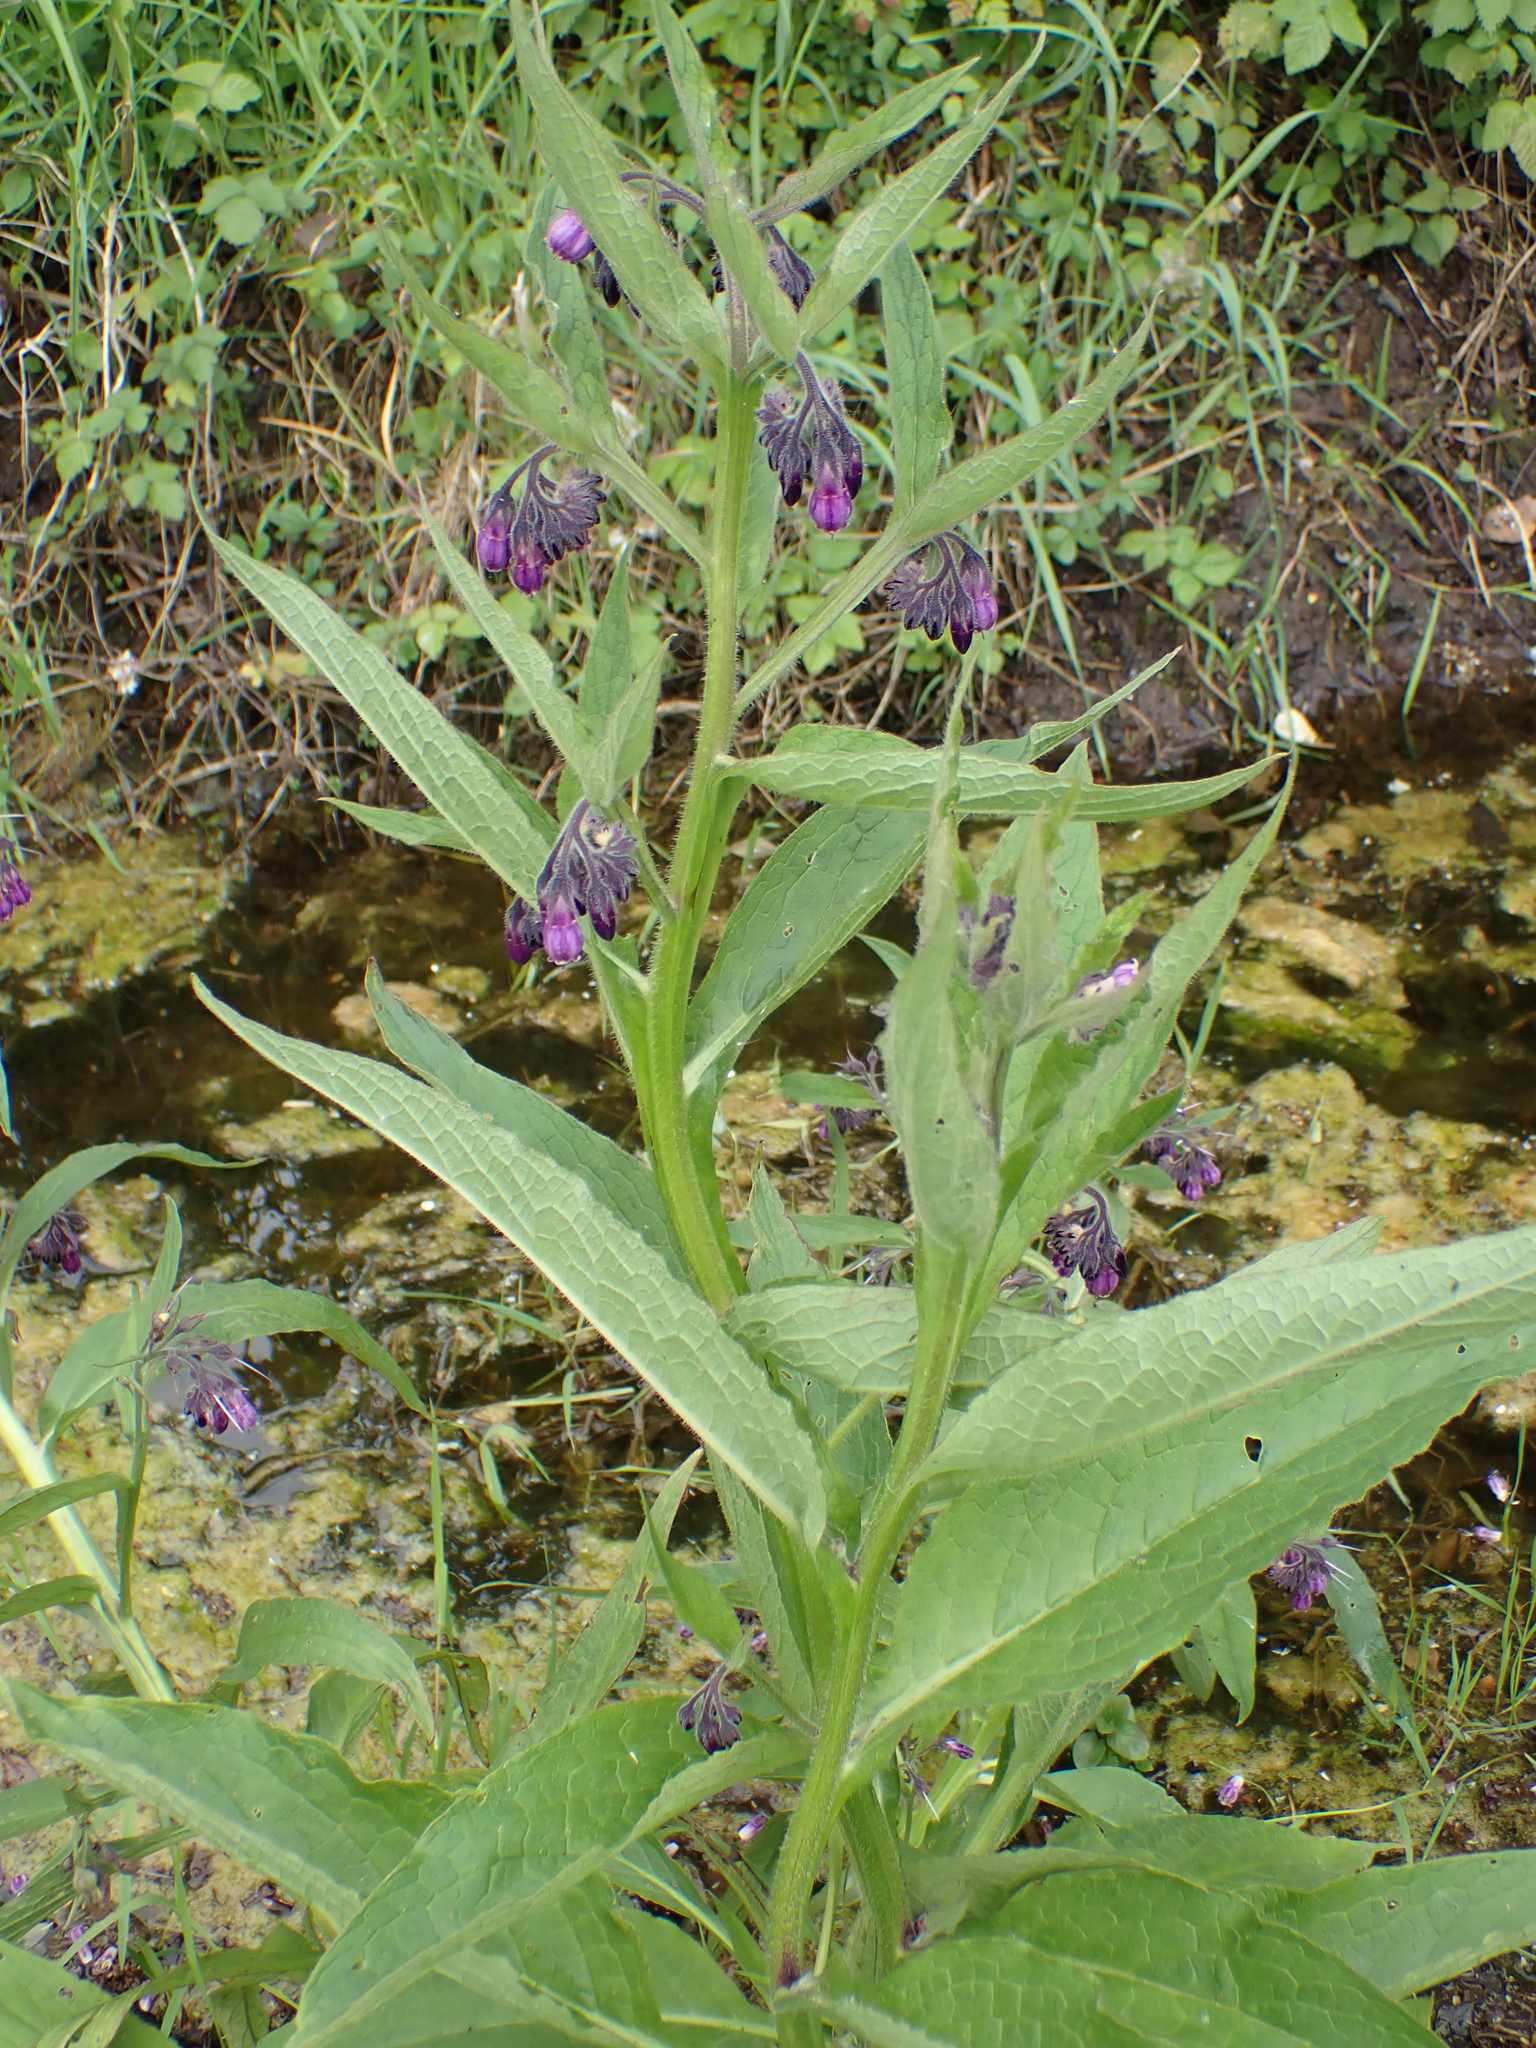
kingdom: Plantae
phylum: Tracheophyta
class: Magnoliopsida
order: Boraginales
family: Boraginaceae
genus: Symphytum
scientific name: Symphytum officinale
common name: Common comfrey
